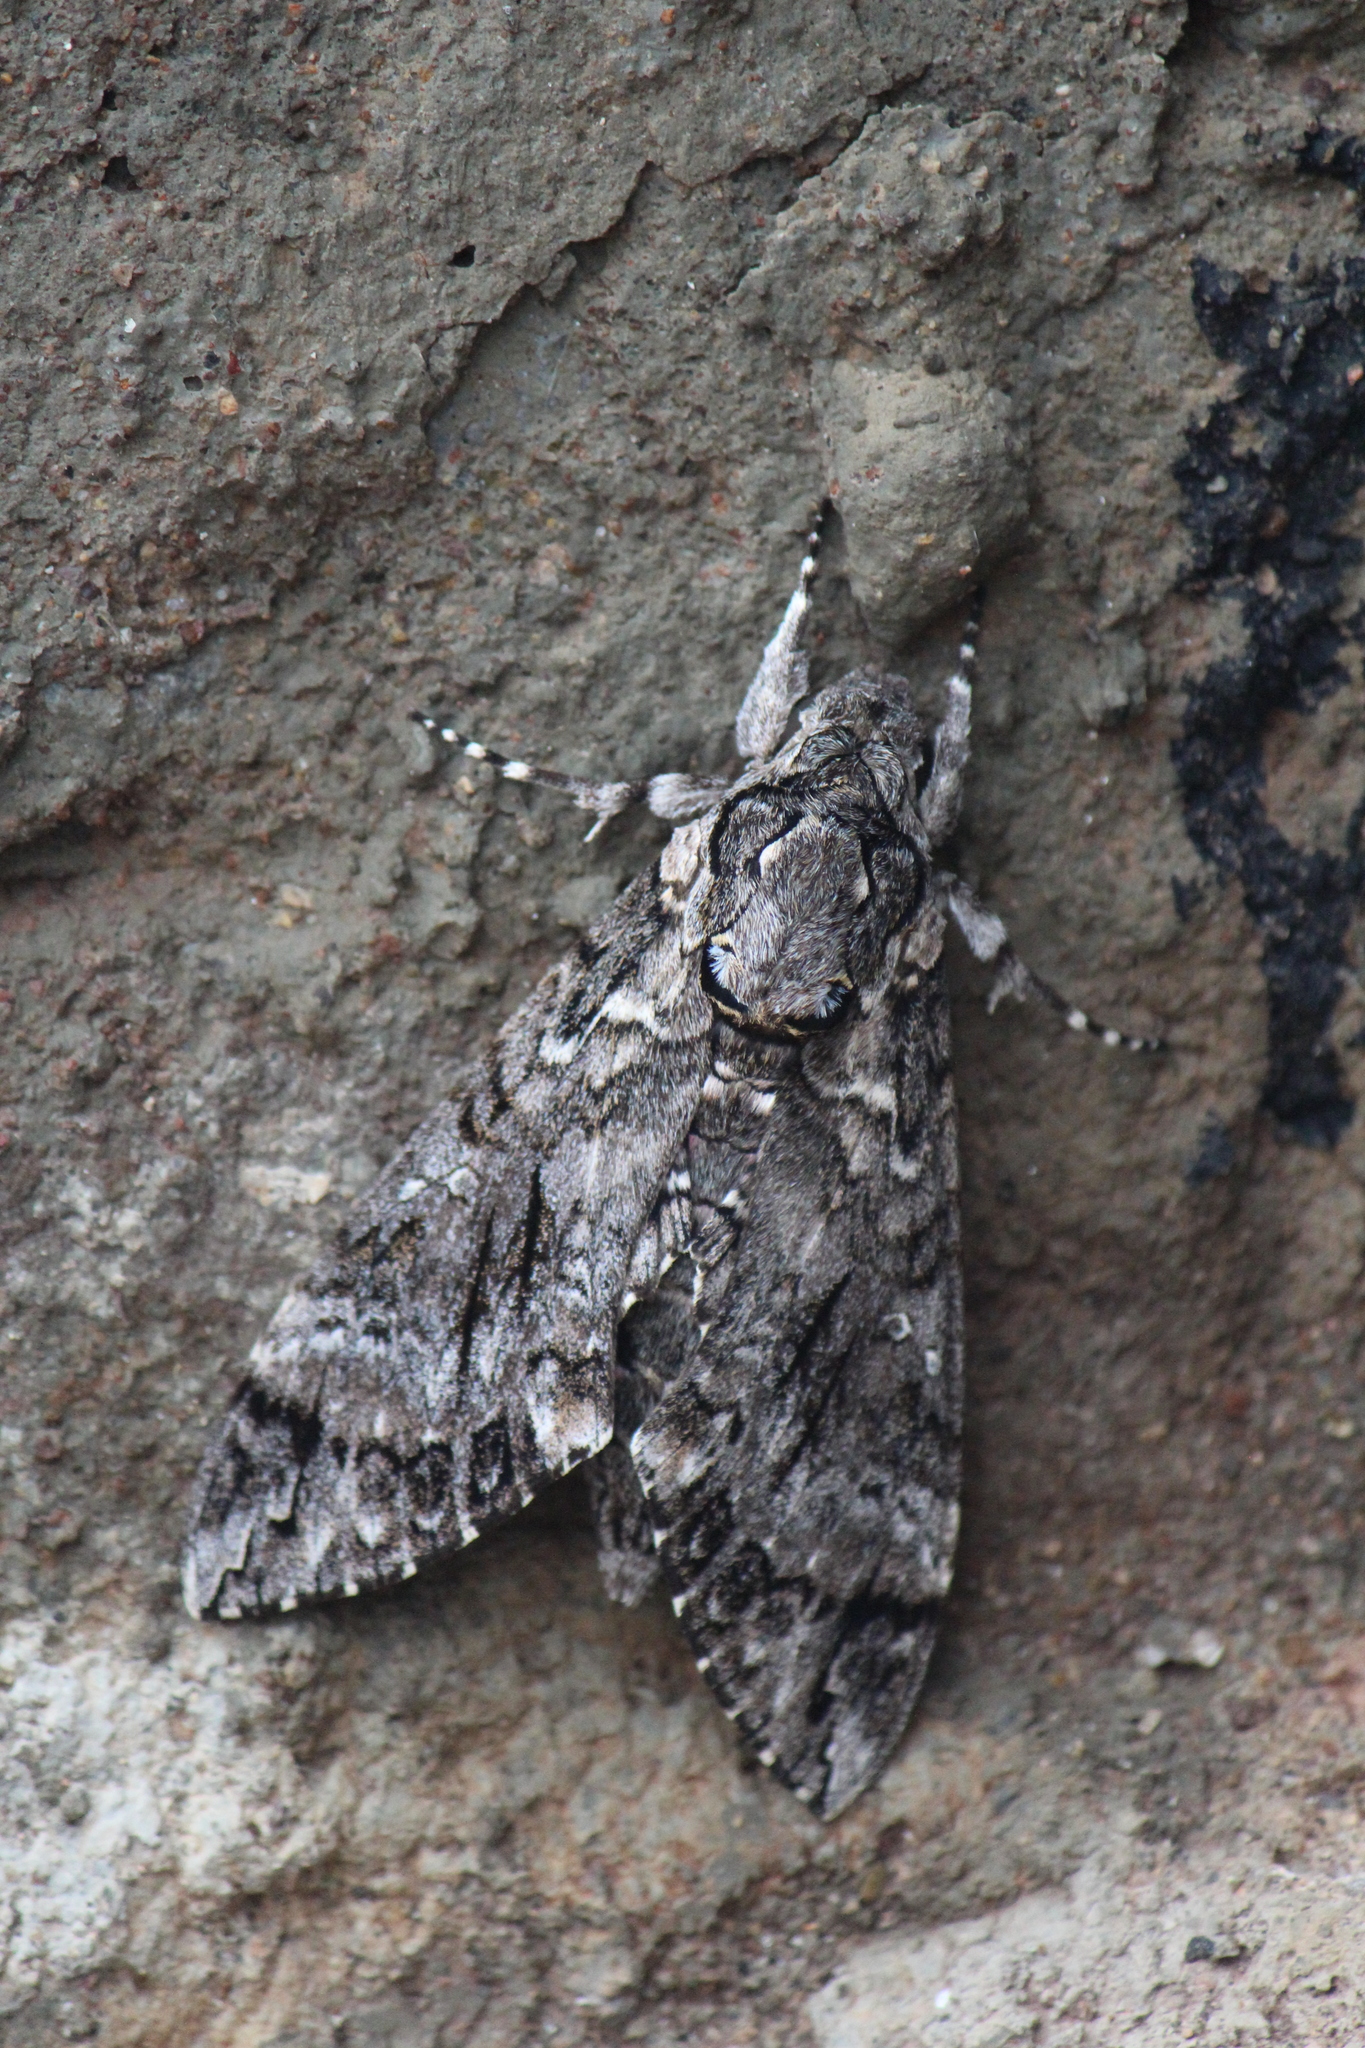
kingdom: Animalia
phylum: Arthropoda
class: Insecta
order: Lepidoptera
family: Sphingidae
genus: Agrius
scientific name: Agrius cingulata
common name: Pink-spotted hawkmoth
